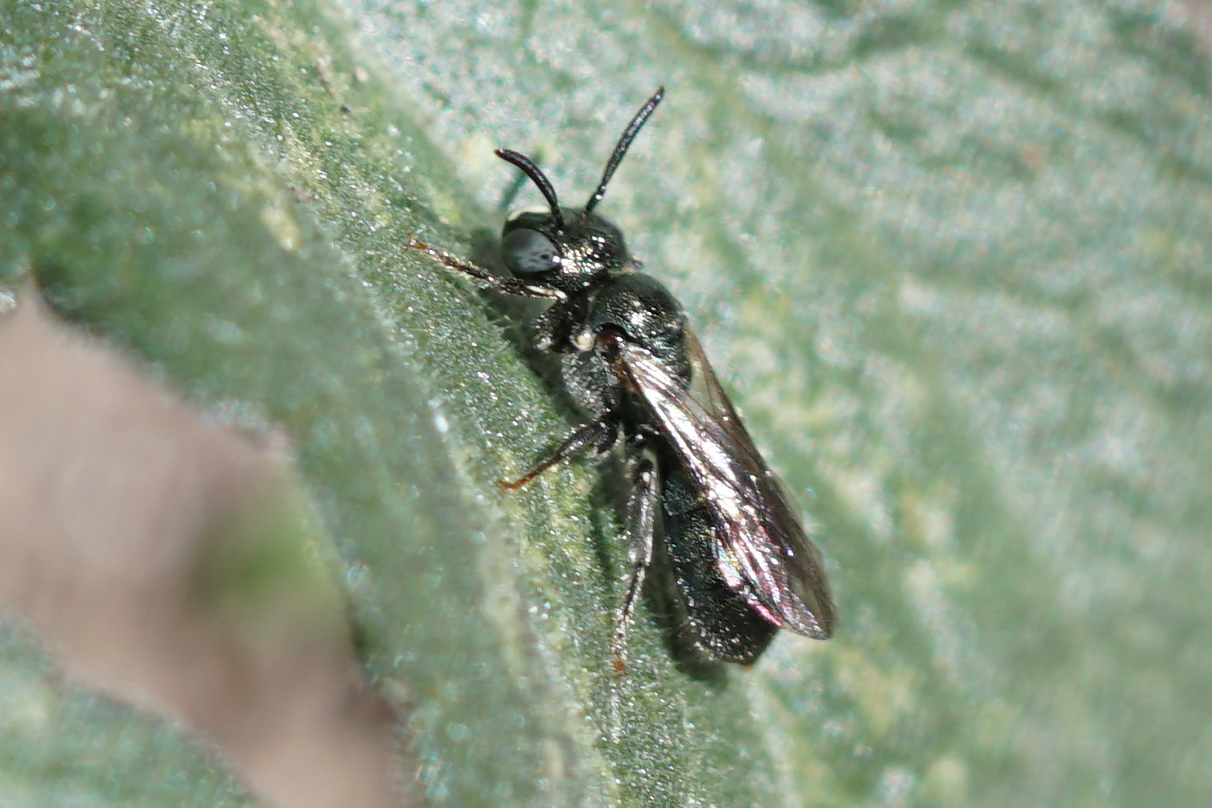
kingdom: Animalia
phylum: Arthropoda
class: Insecta
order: Hymenoptera
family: Apidae
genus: Zadontomerus
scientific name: Zadontomerus
